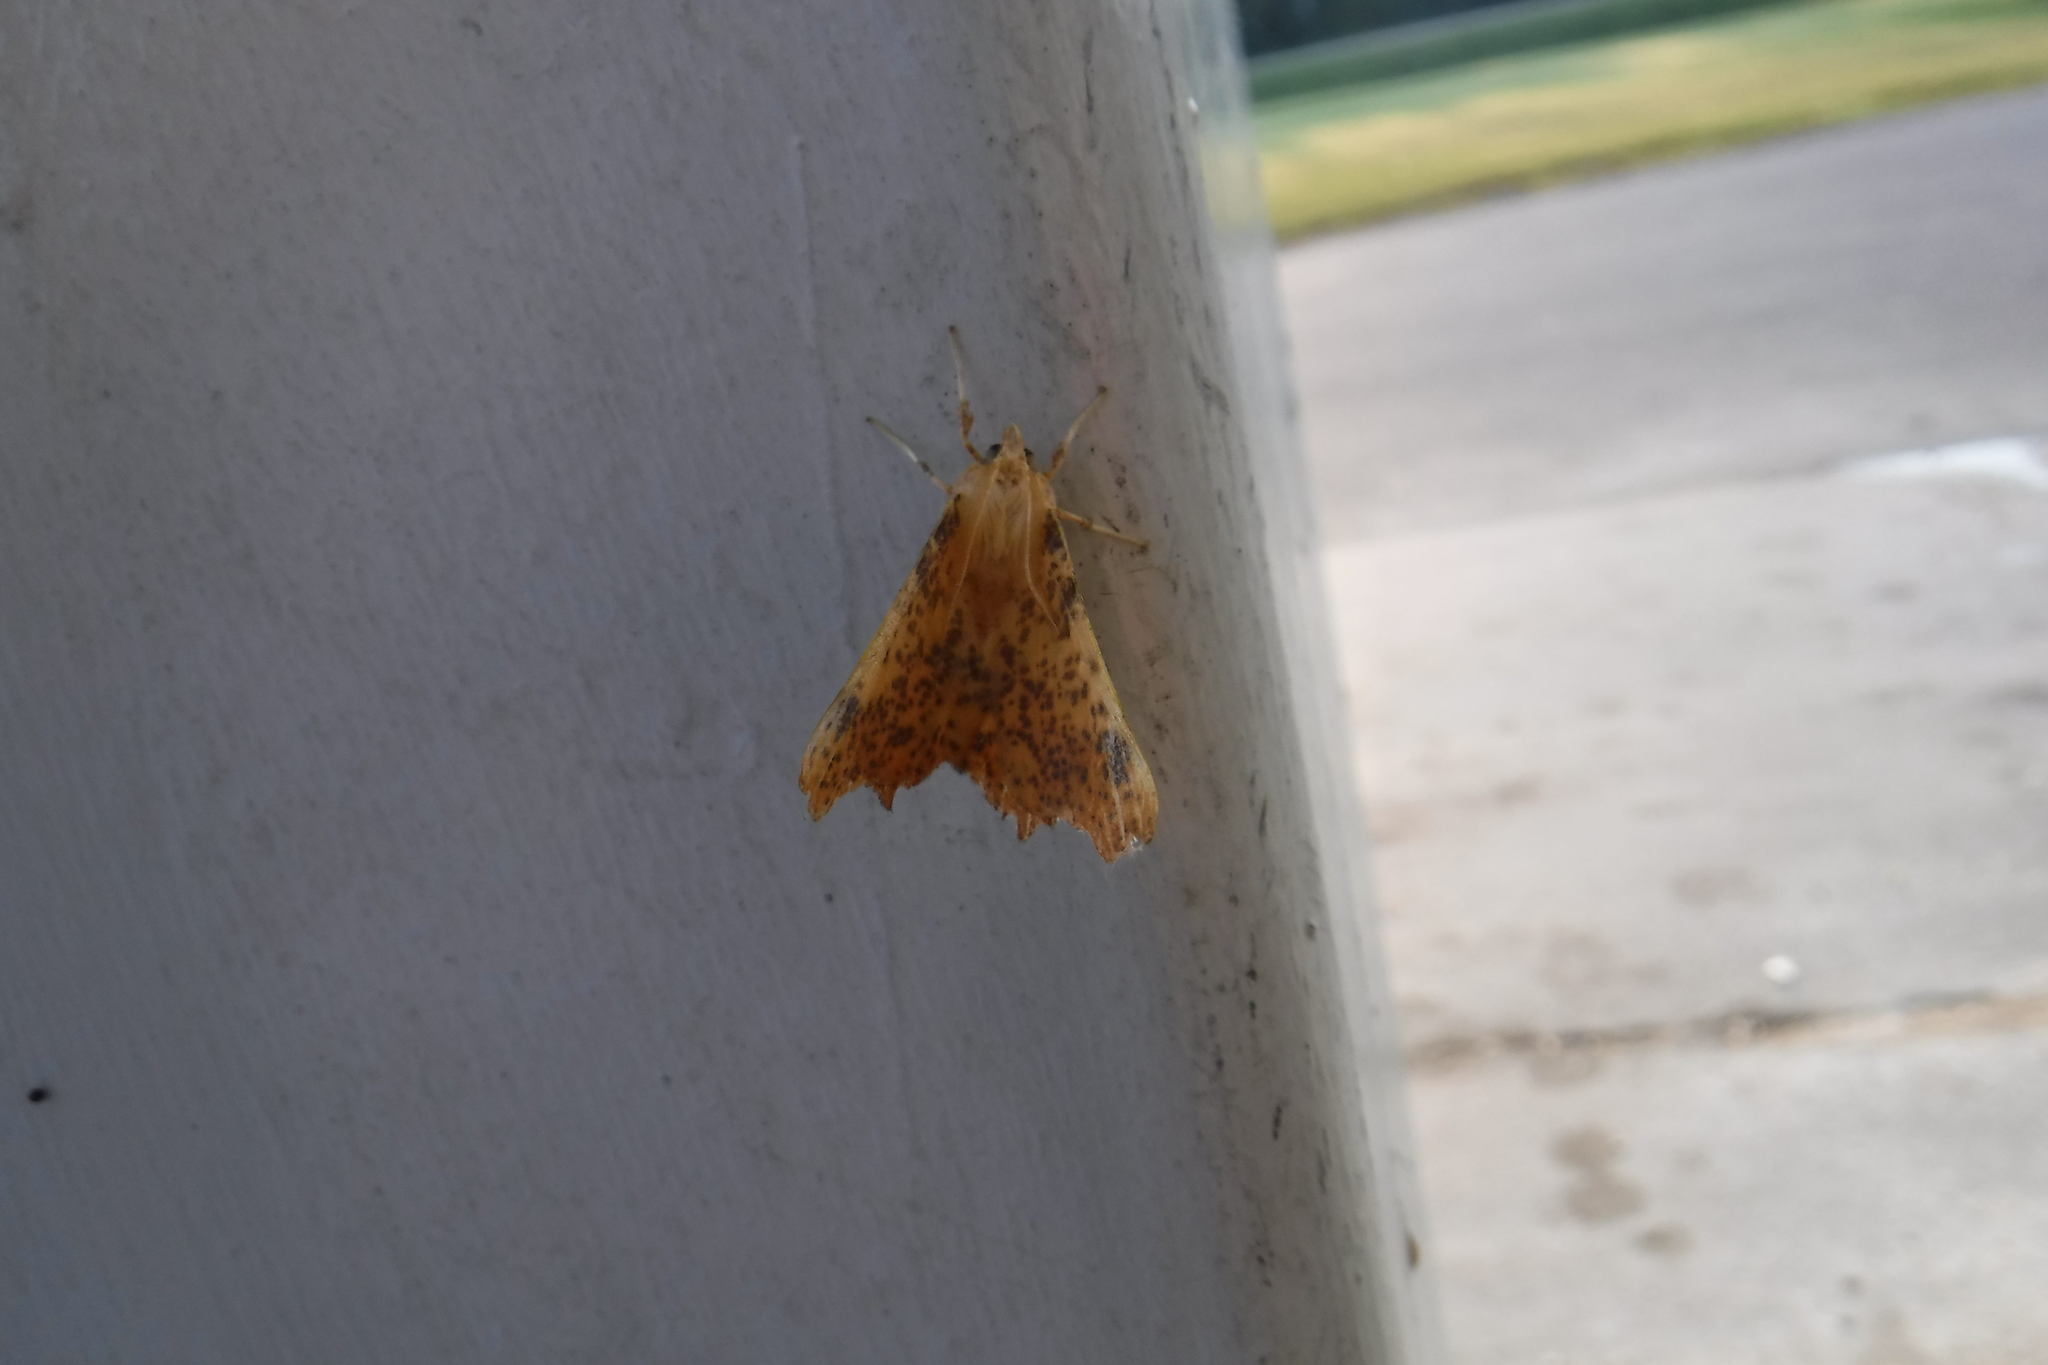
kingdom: Animalia
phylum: Arthropoda
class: Insecta
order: Lepidoptera
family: Geometridae
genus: Ennomos
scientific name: Ennomos magnaria
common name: Maple spanworm
